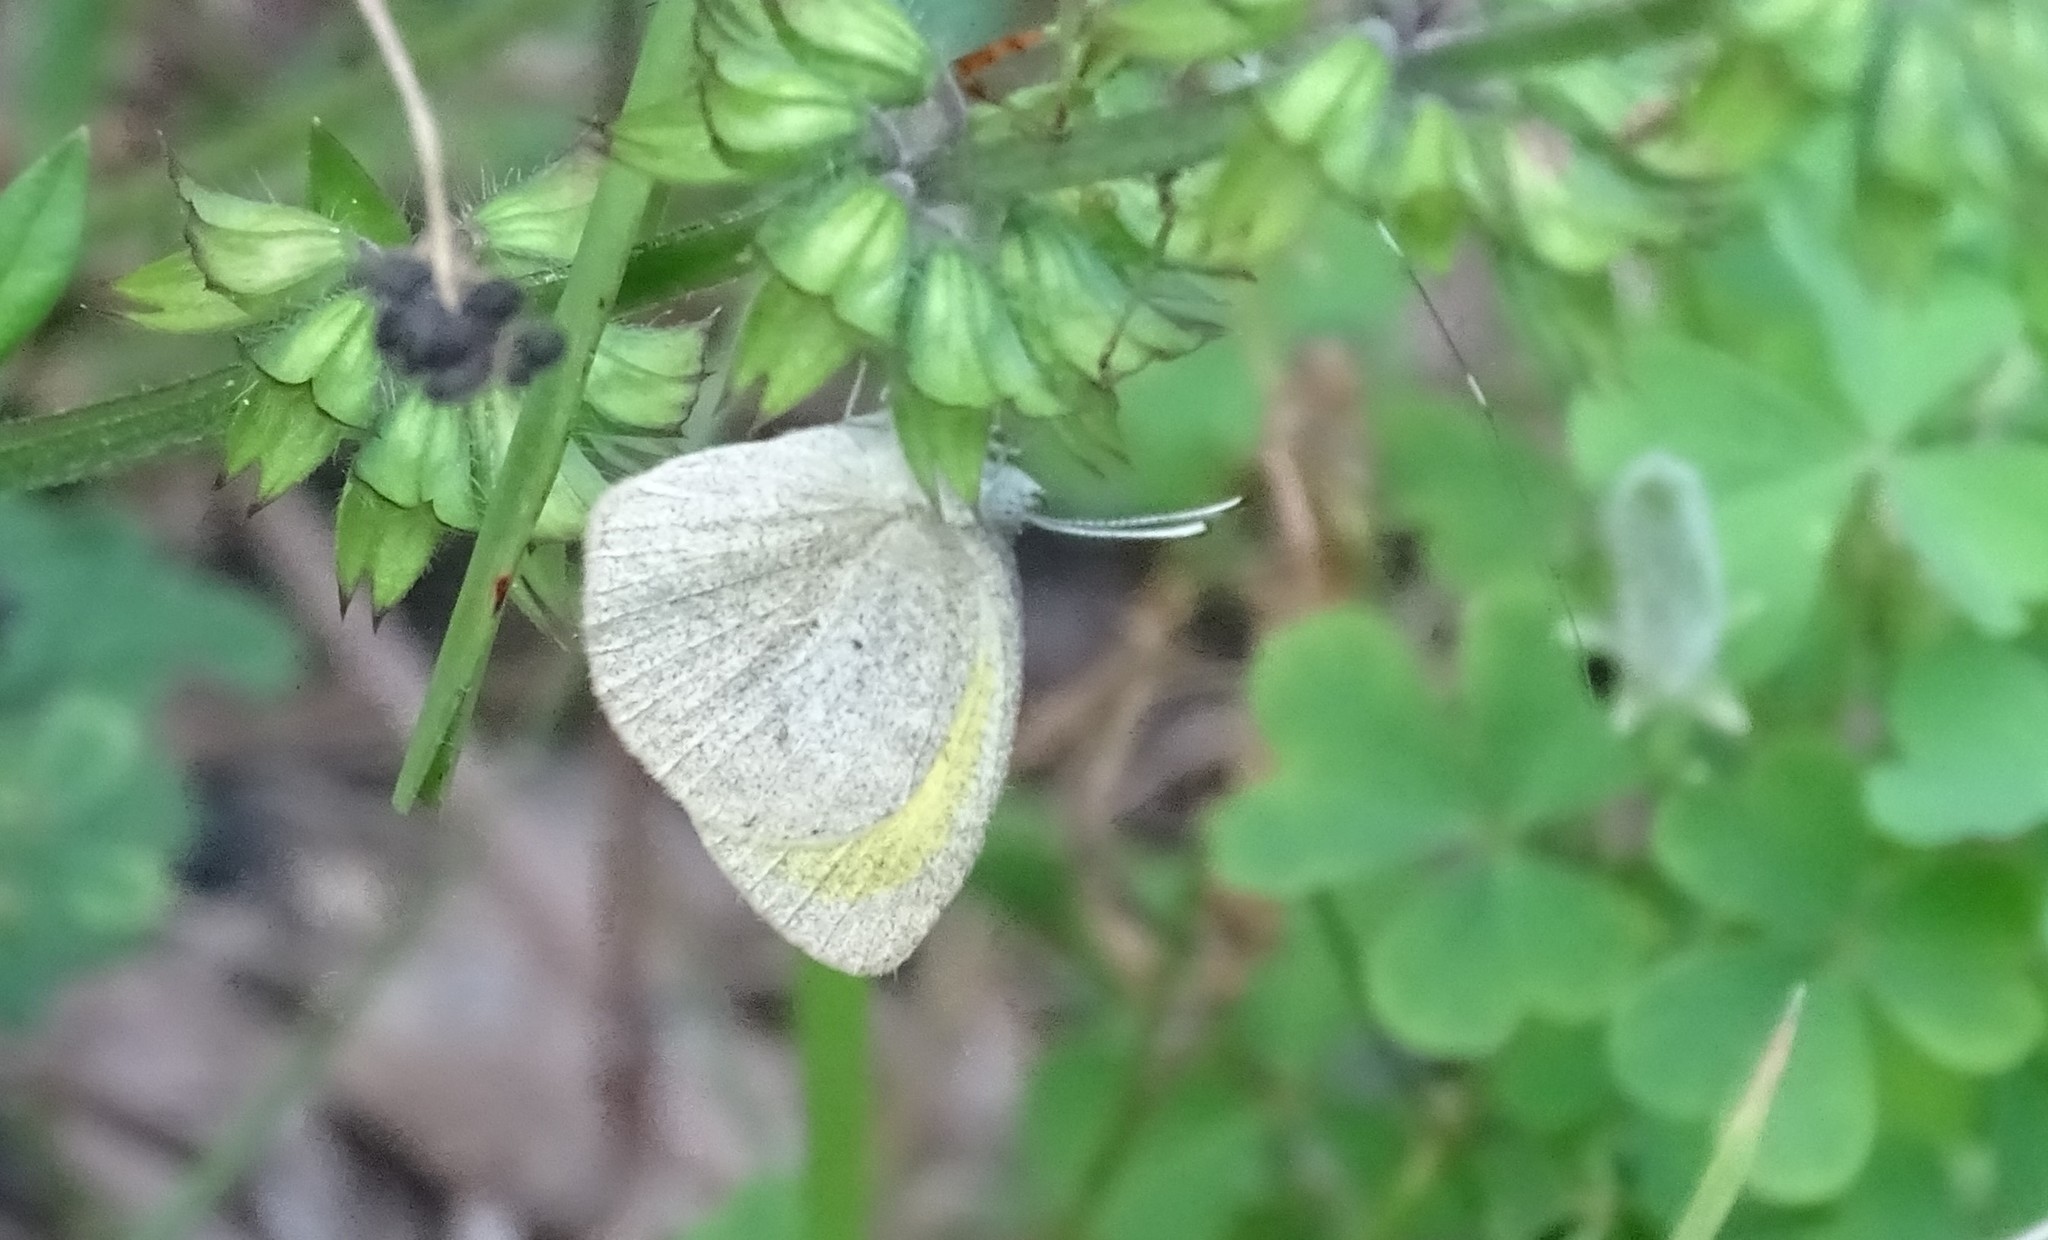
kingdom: Animalia
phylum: Arthropoda
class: Insecta
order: Lepidoptera
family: Pieridae
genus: Eurema
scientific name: Eurema daira
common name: Barred sulphur
